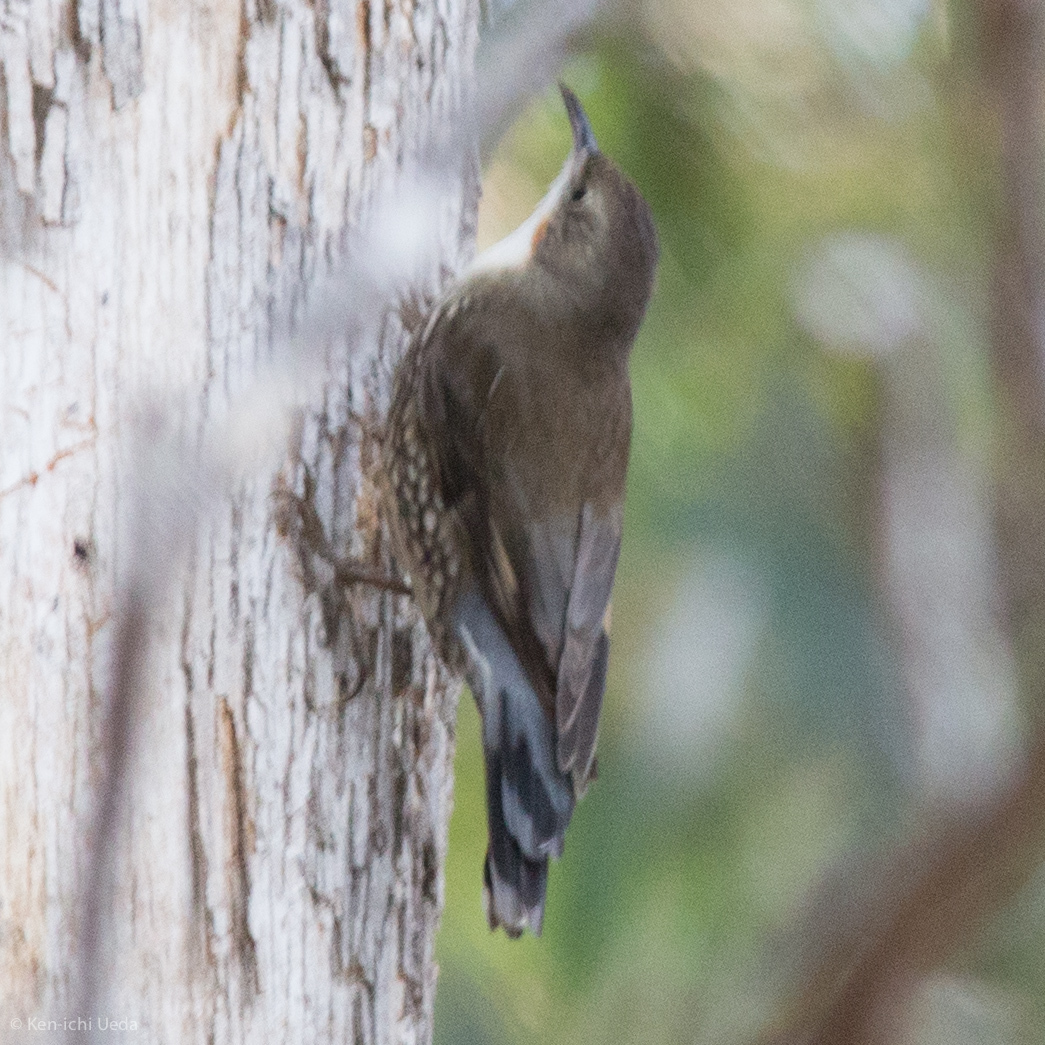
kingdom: Animalia
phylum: Chordata
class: Aves
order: Passeriformes
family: Climacteridae
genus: Cormobates
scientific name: Cormobates leucophaea
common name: White-throated treecreeper
